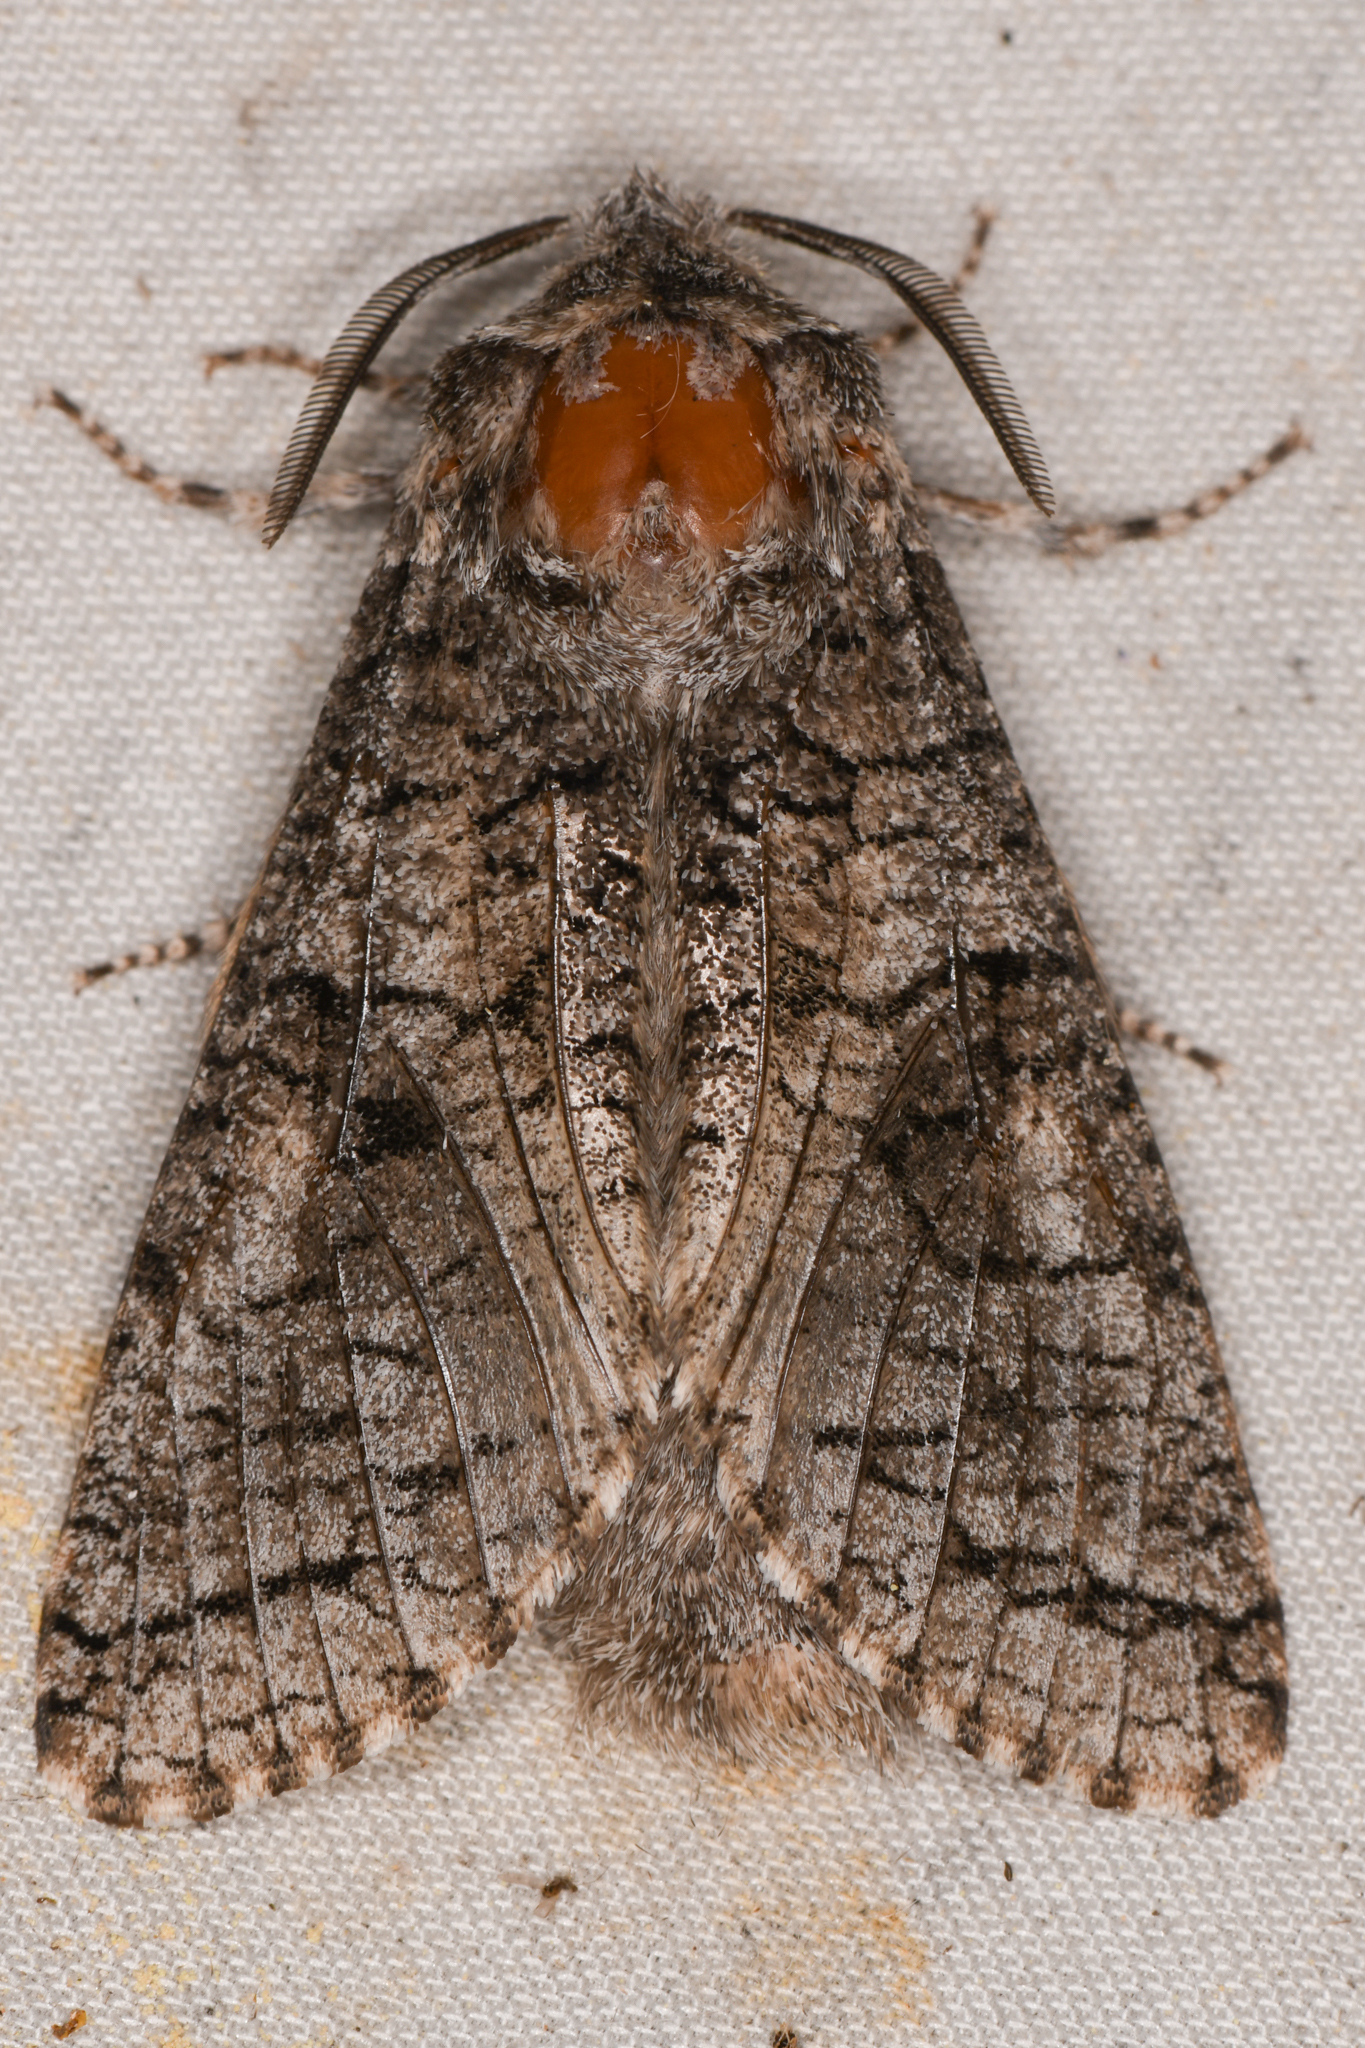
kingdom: Animalia
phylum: Arthropoda
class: Insecta
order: Lepidoptera
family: Cossidae
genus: Acossus
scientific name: Acossus populi
